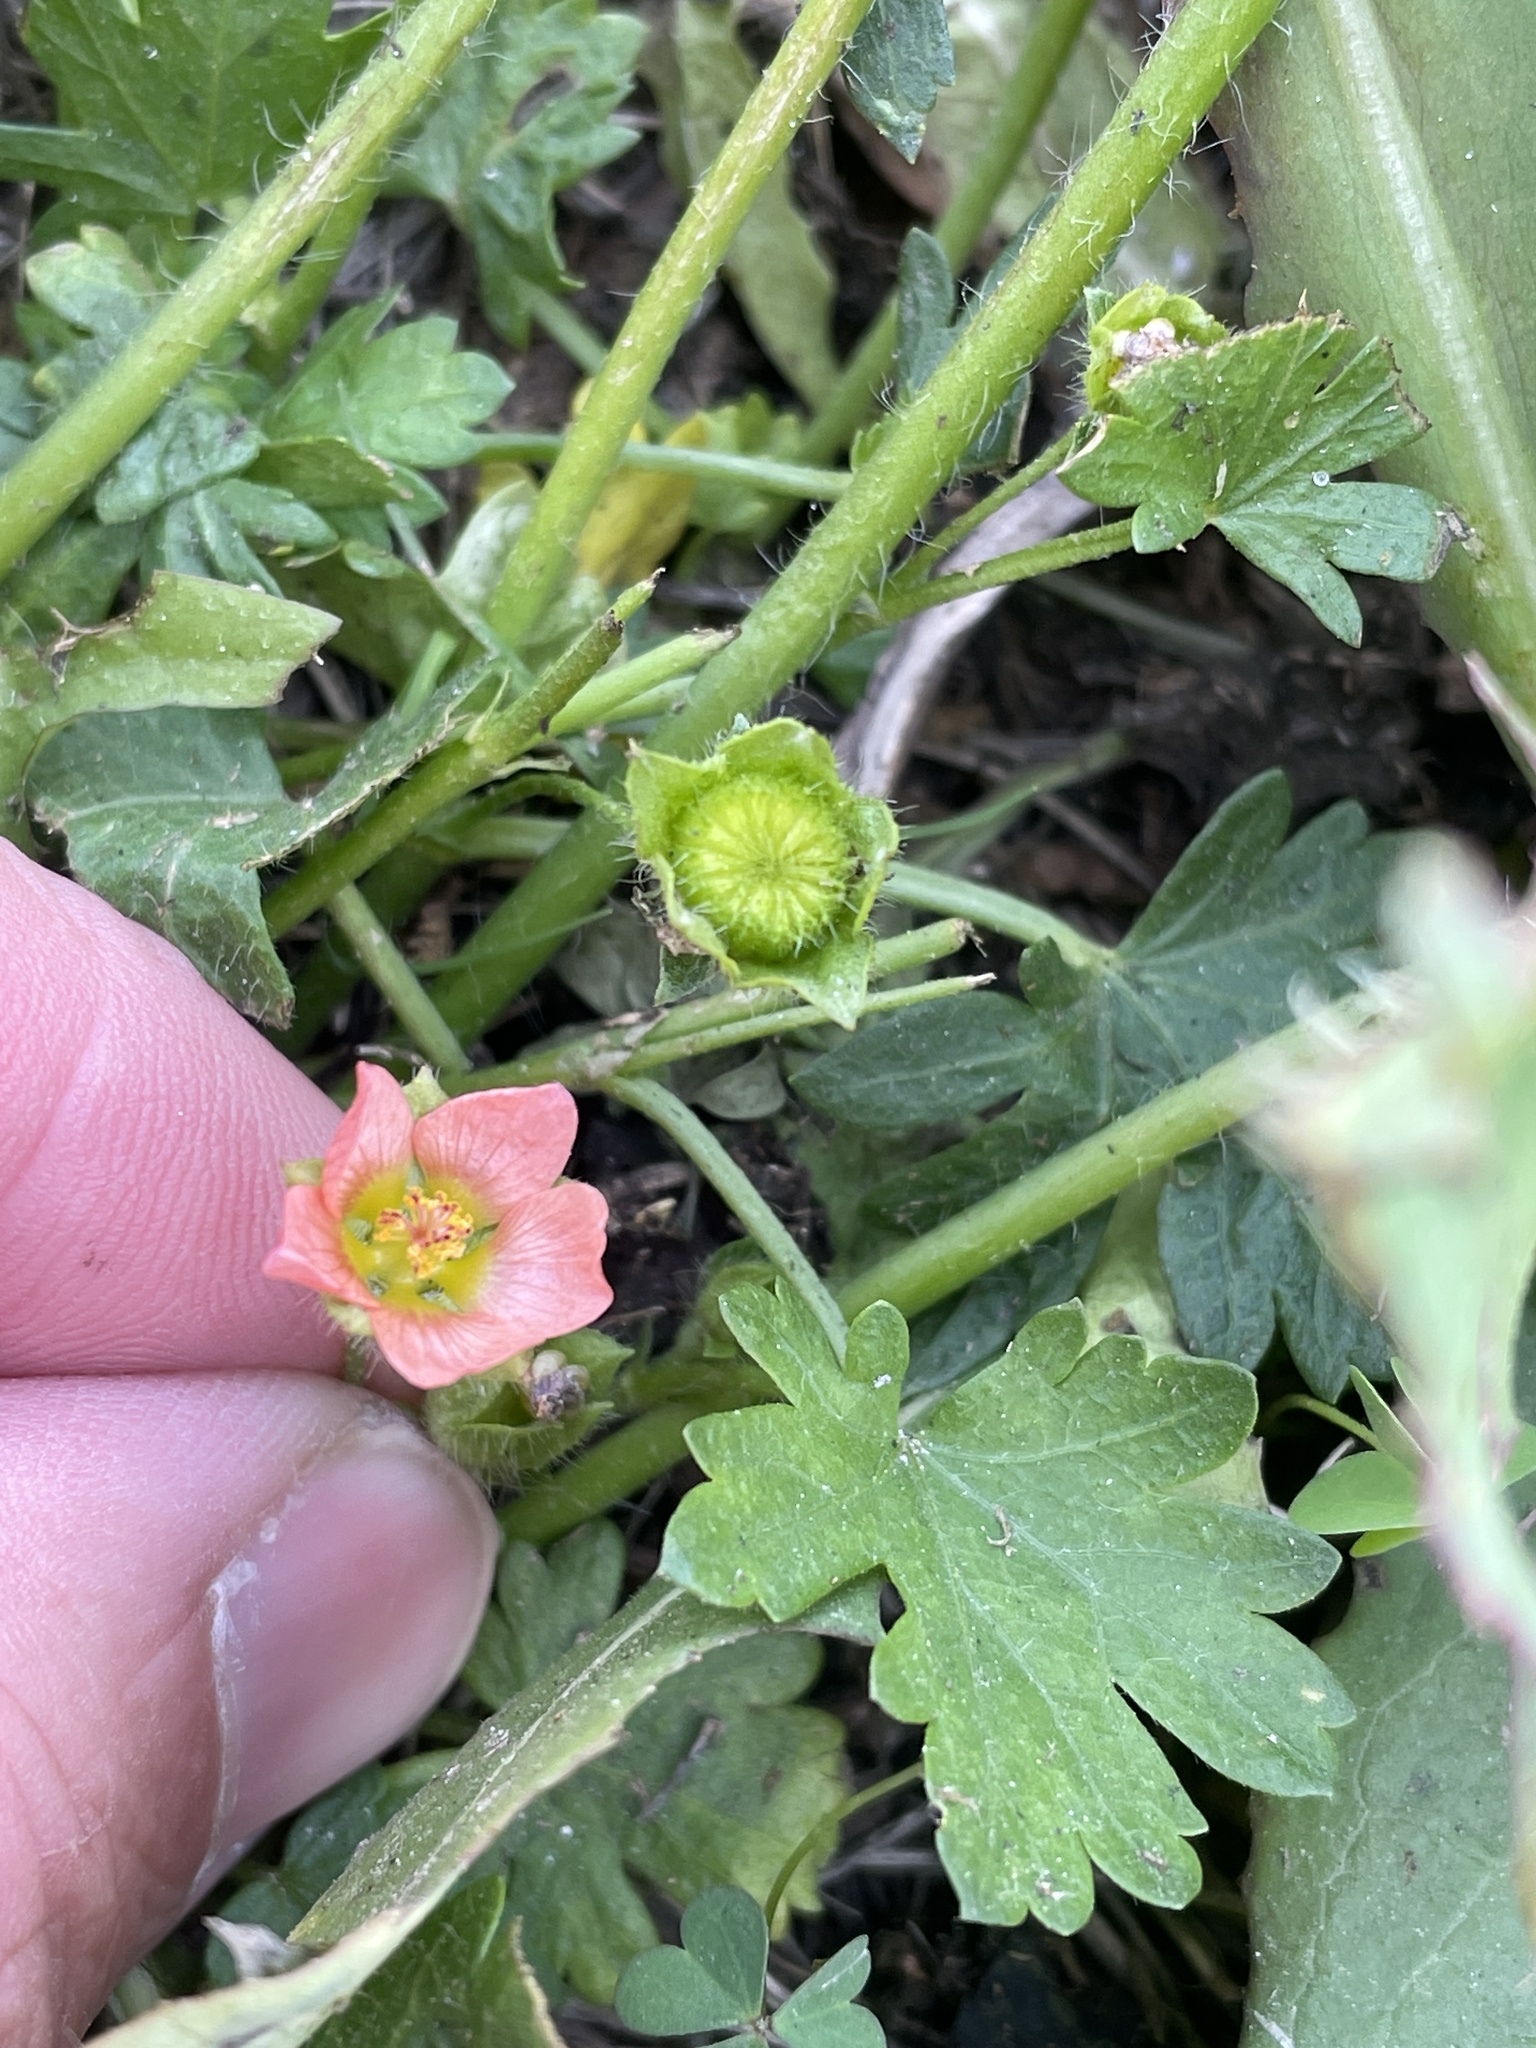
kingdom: Plantae
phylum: Tracheophyta
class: Magnoliopsida
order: Malvales
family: Malvaceae
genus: Modiola
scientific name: Modiola caroliniana
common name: Carolina bristlemallow
